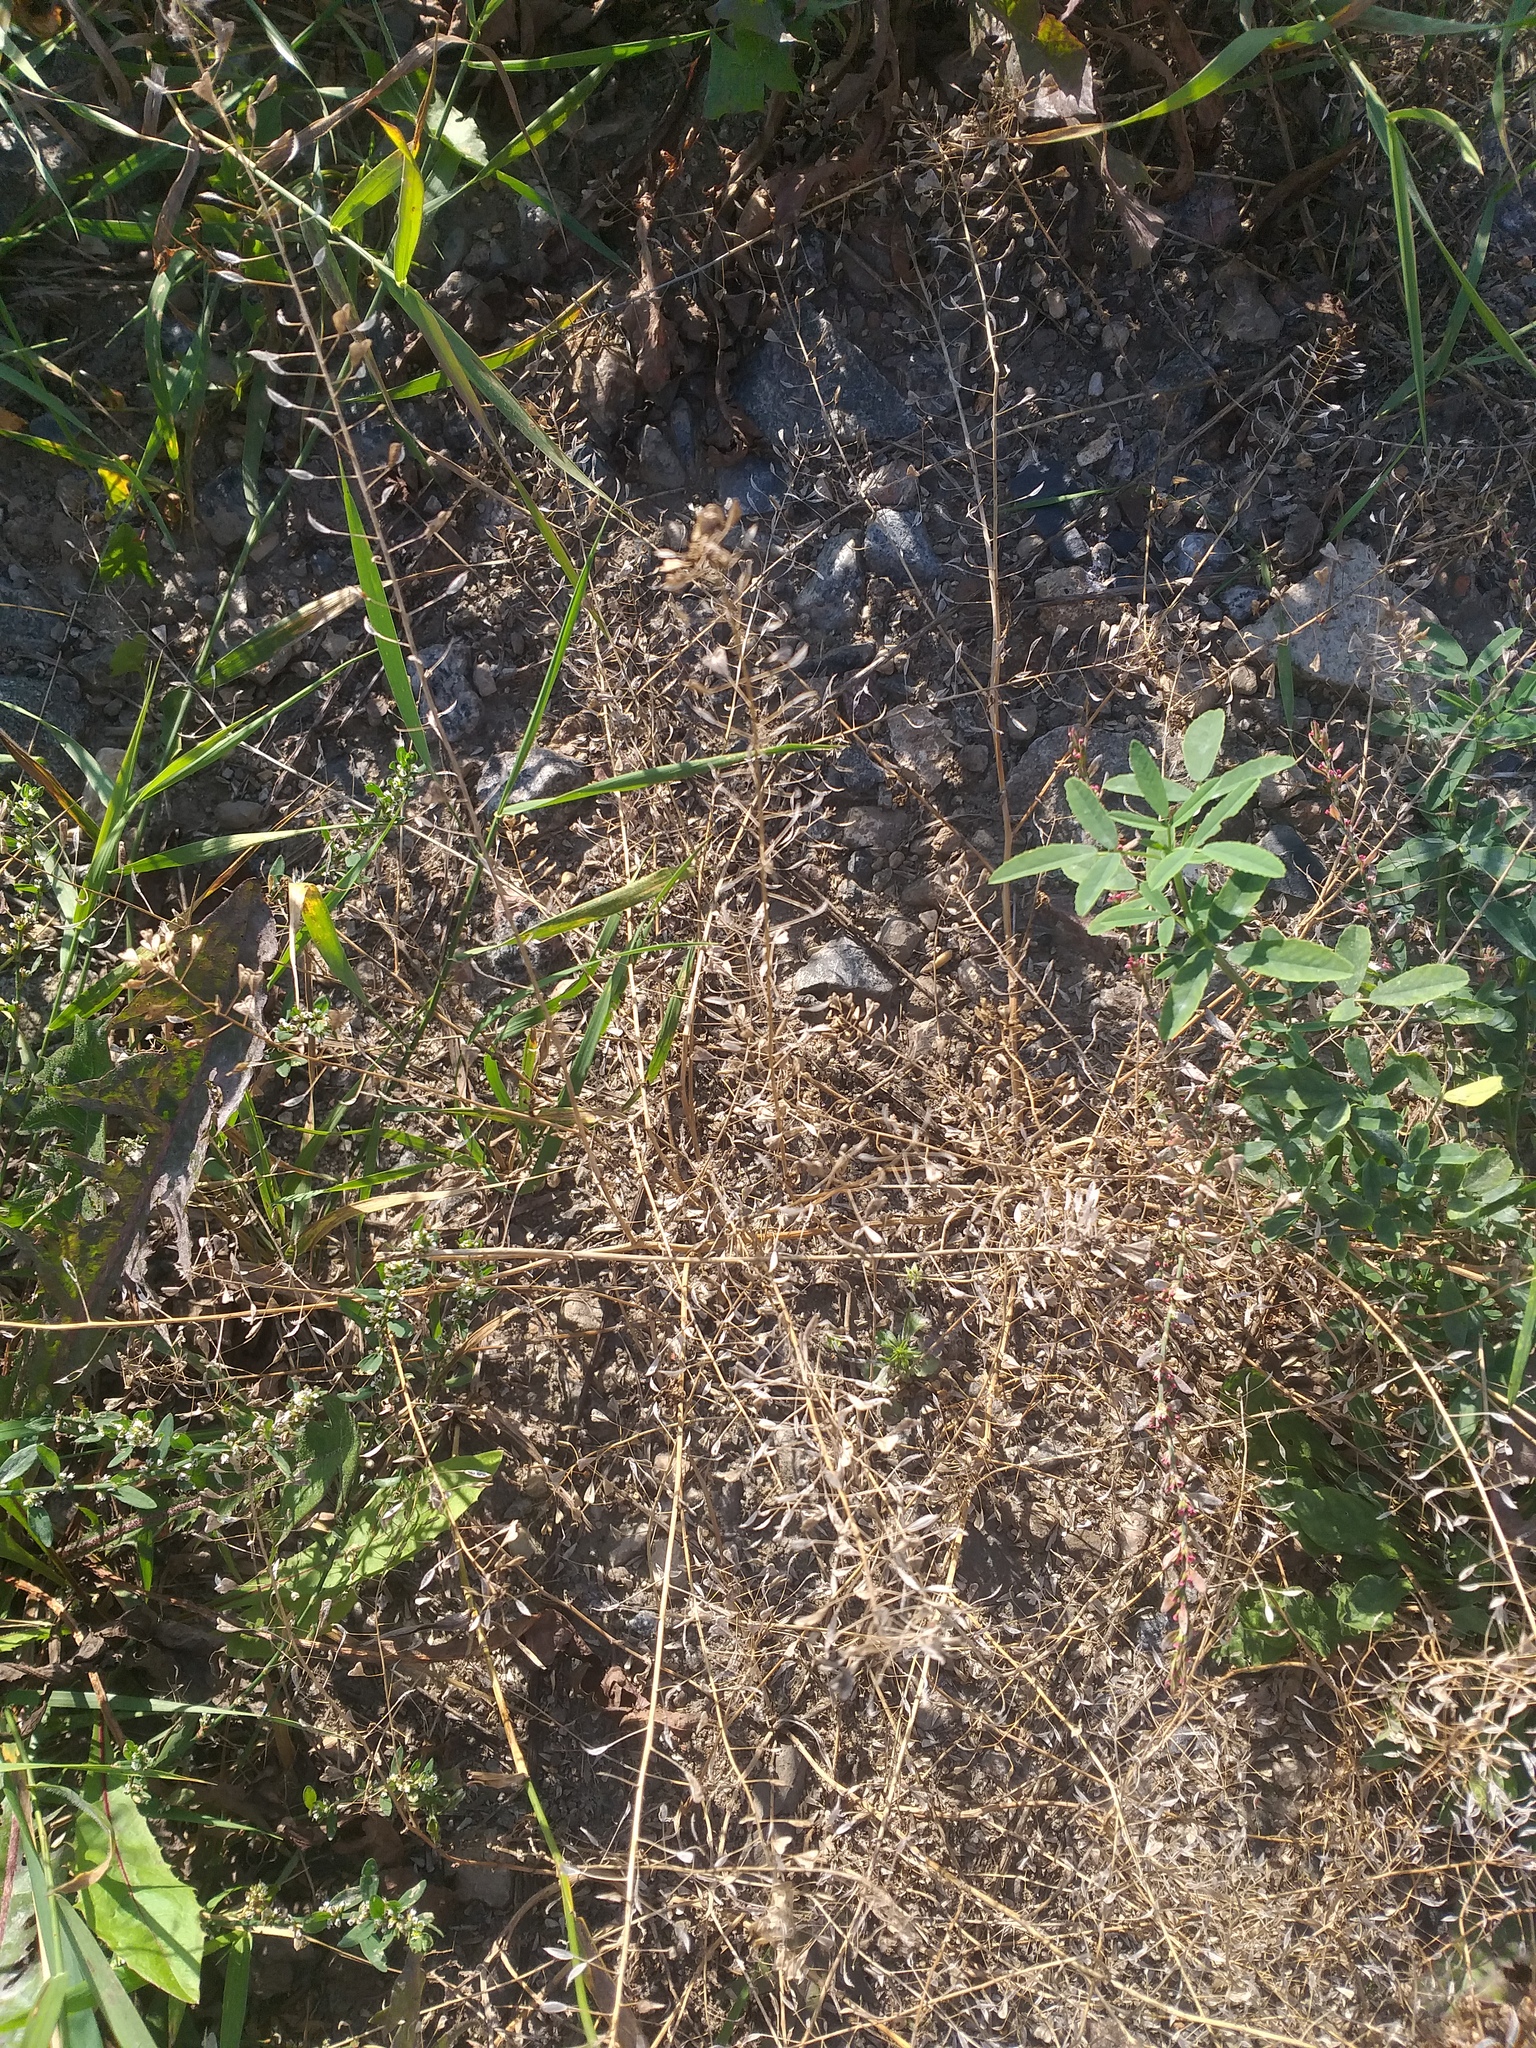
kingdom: Plantae
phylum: Tracheophyta
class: Magnoliopsida
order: Brassicales
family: Brassicaceae
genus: Capsella
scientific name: Capsella bursa-pastoris
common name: Shepherd's purse
